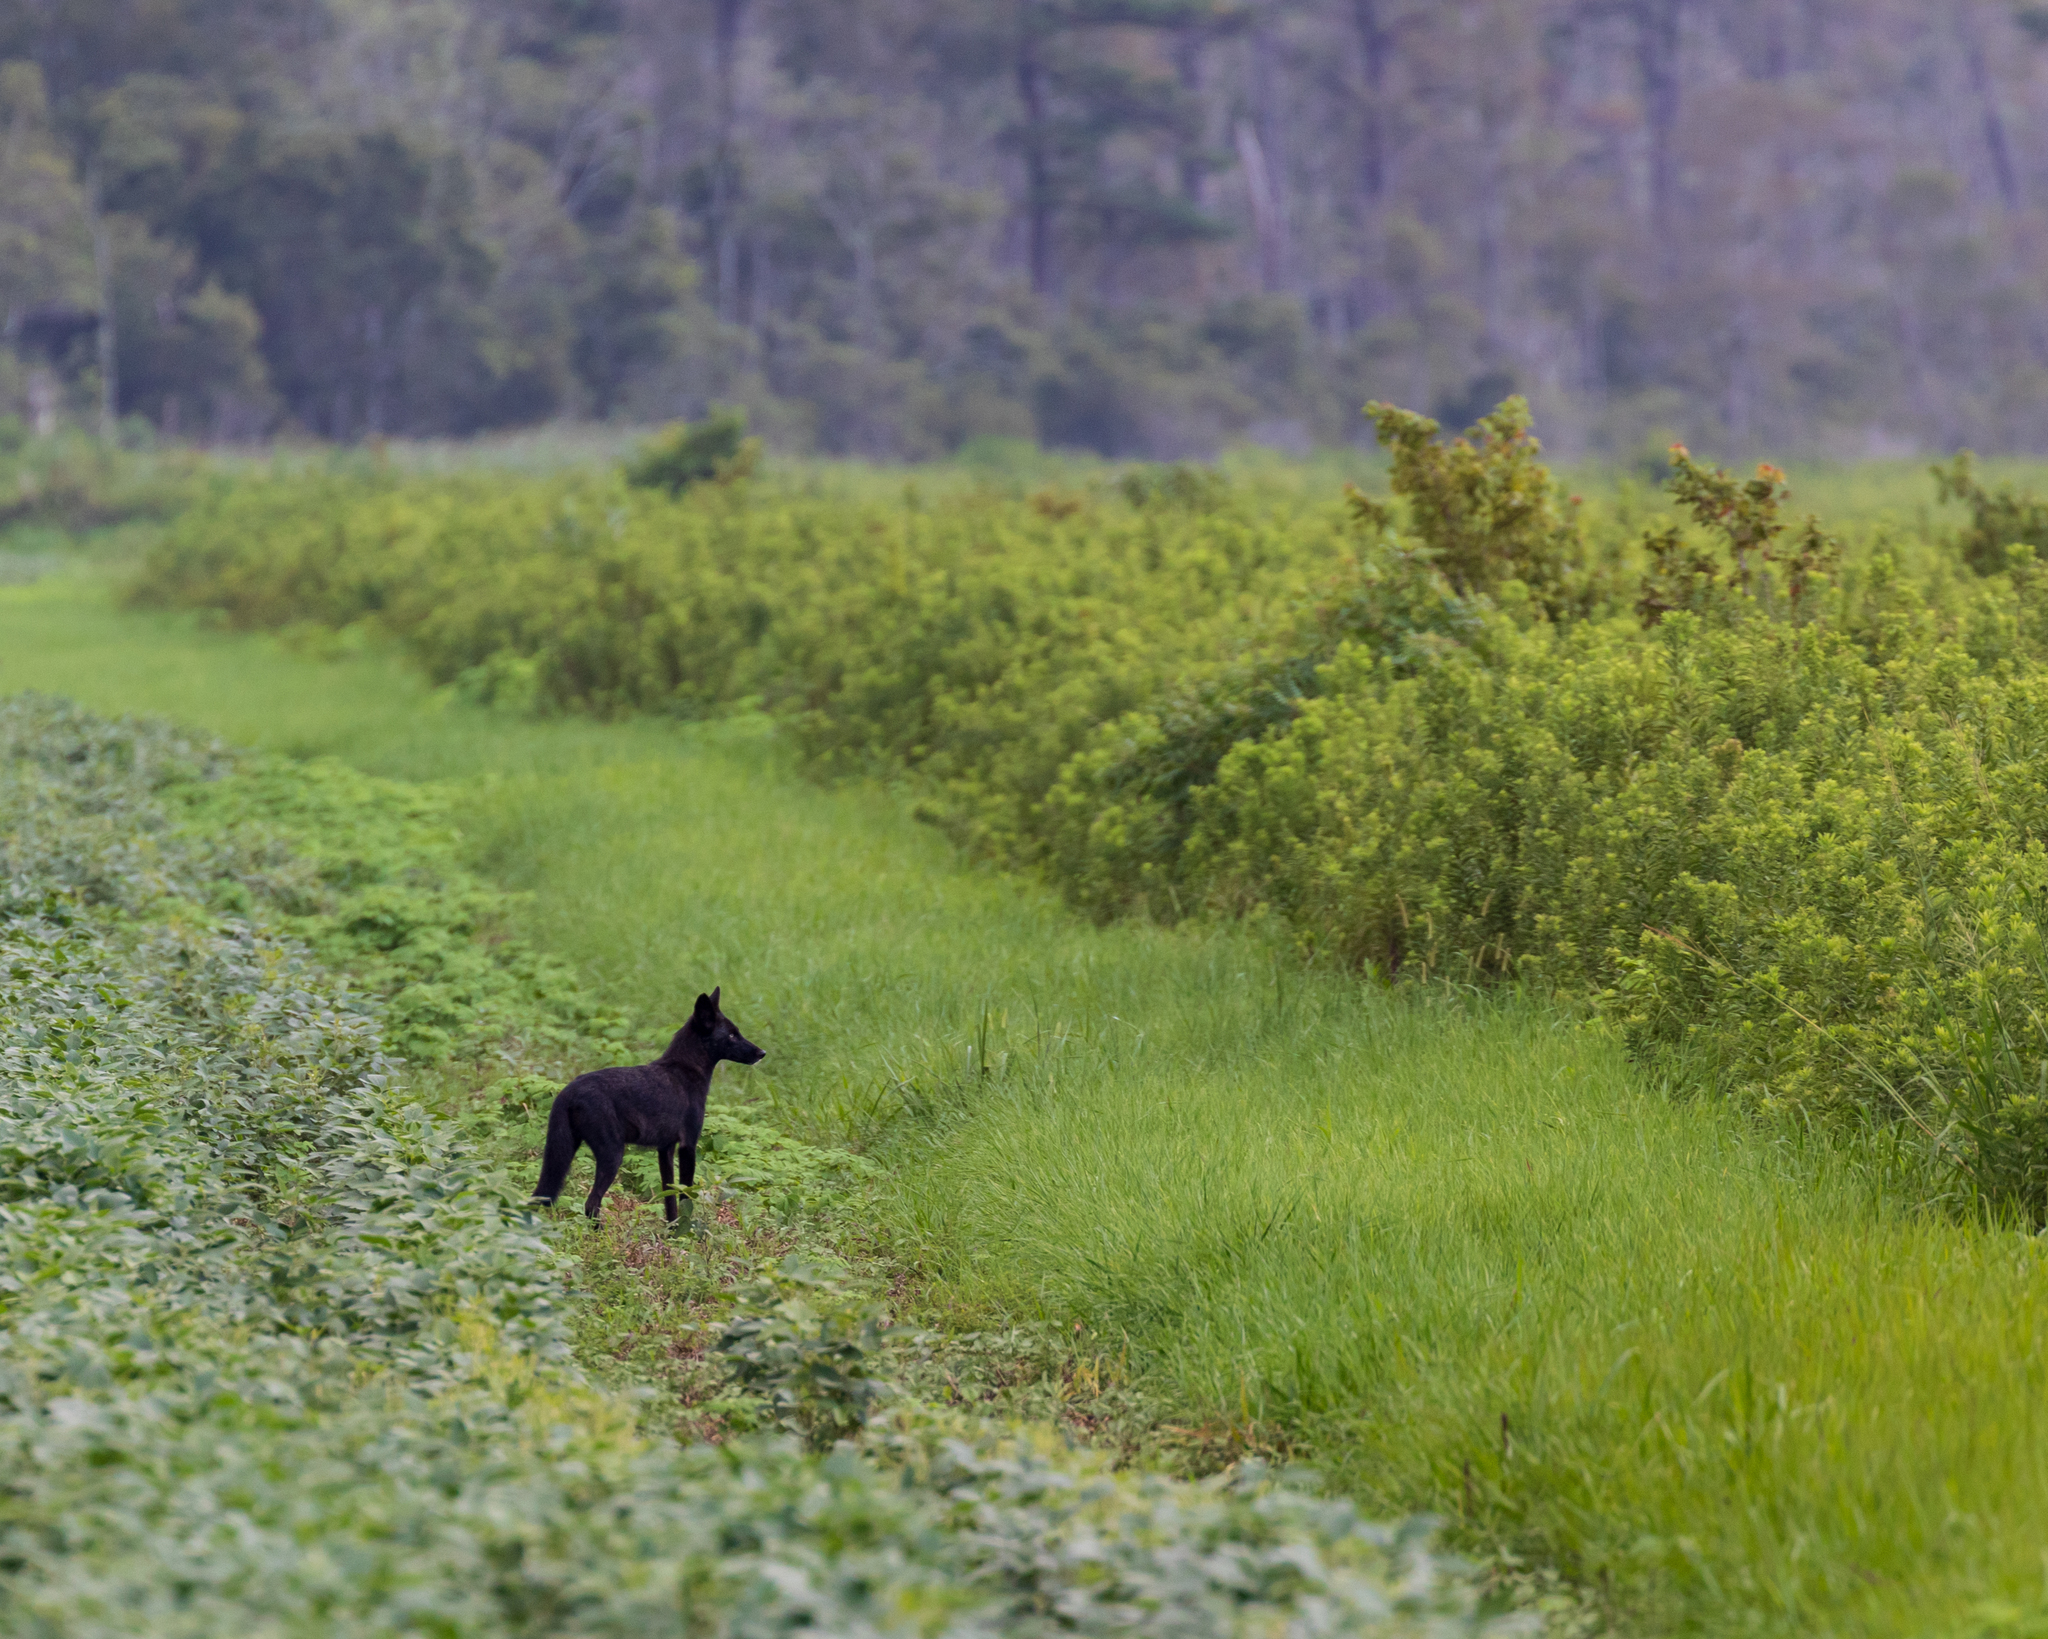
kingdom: Animalia
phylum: Chordata
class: Mammalia
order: Carnivora
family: Canidae
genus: Canis
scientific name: Canis latrans
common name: Coyote
